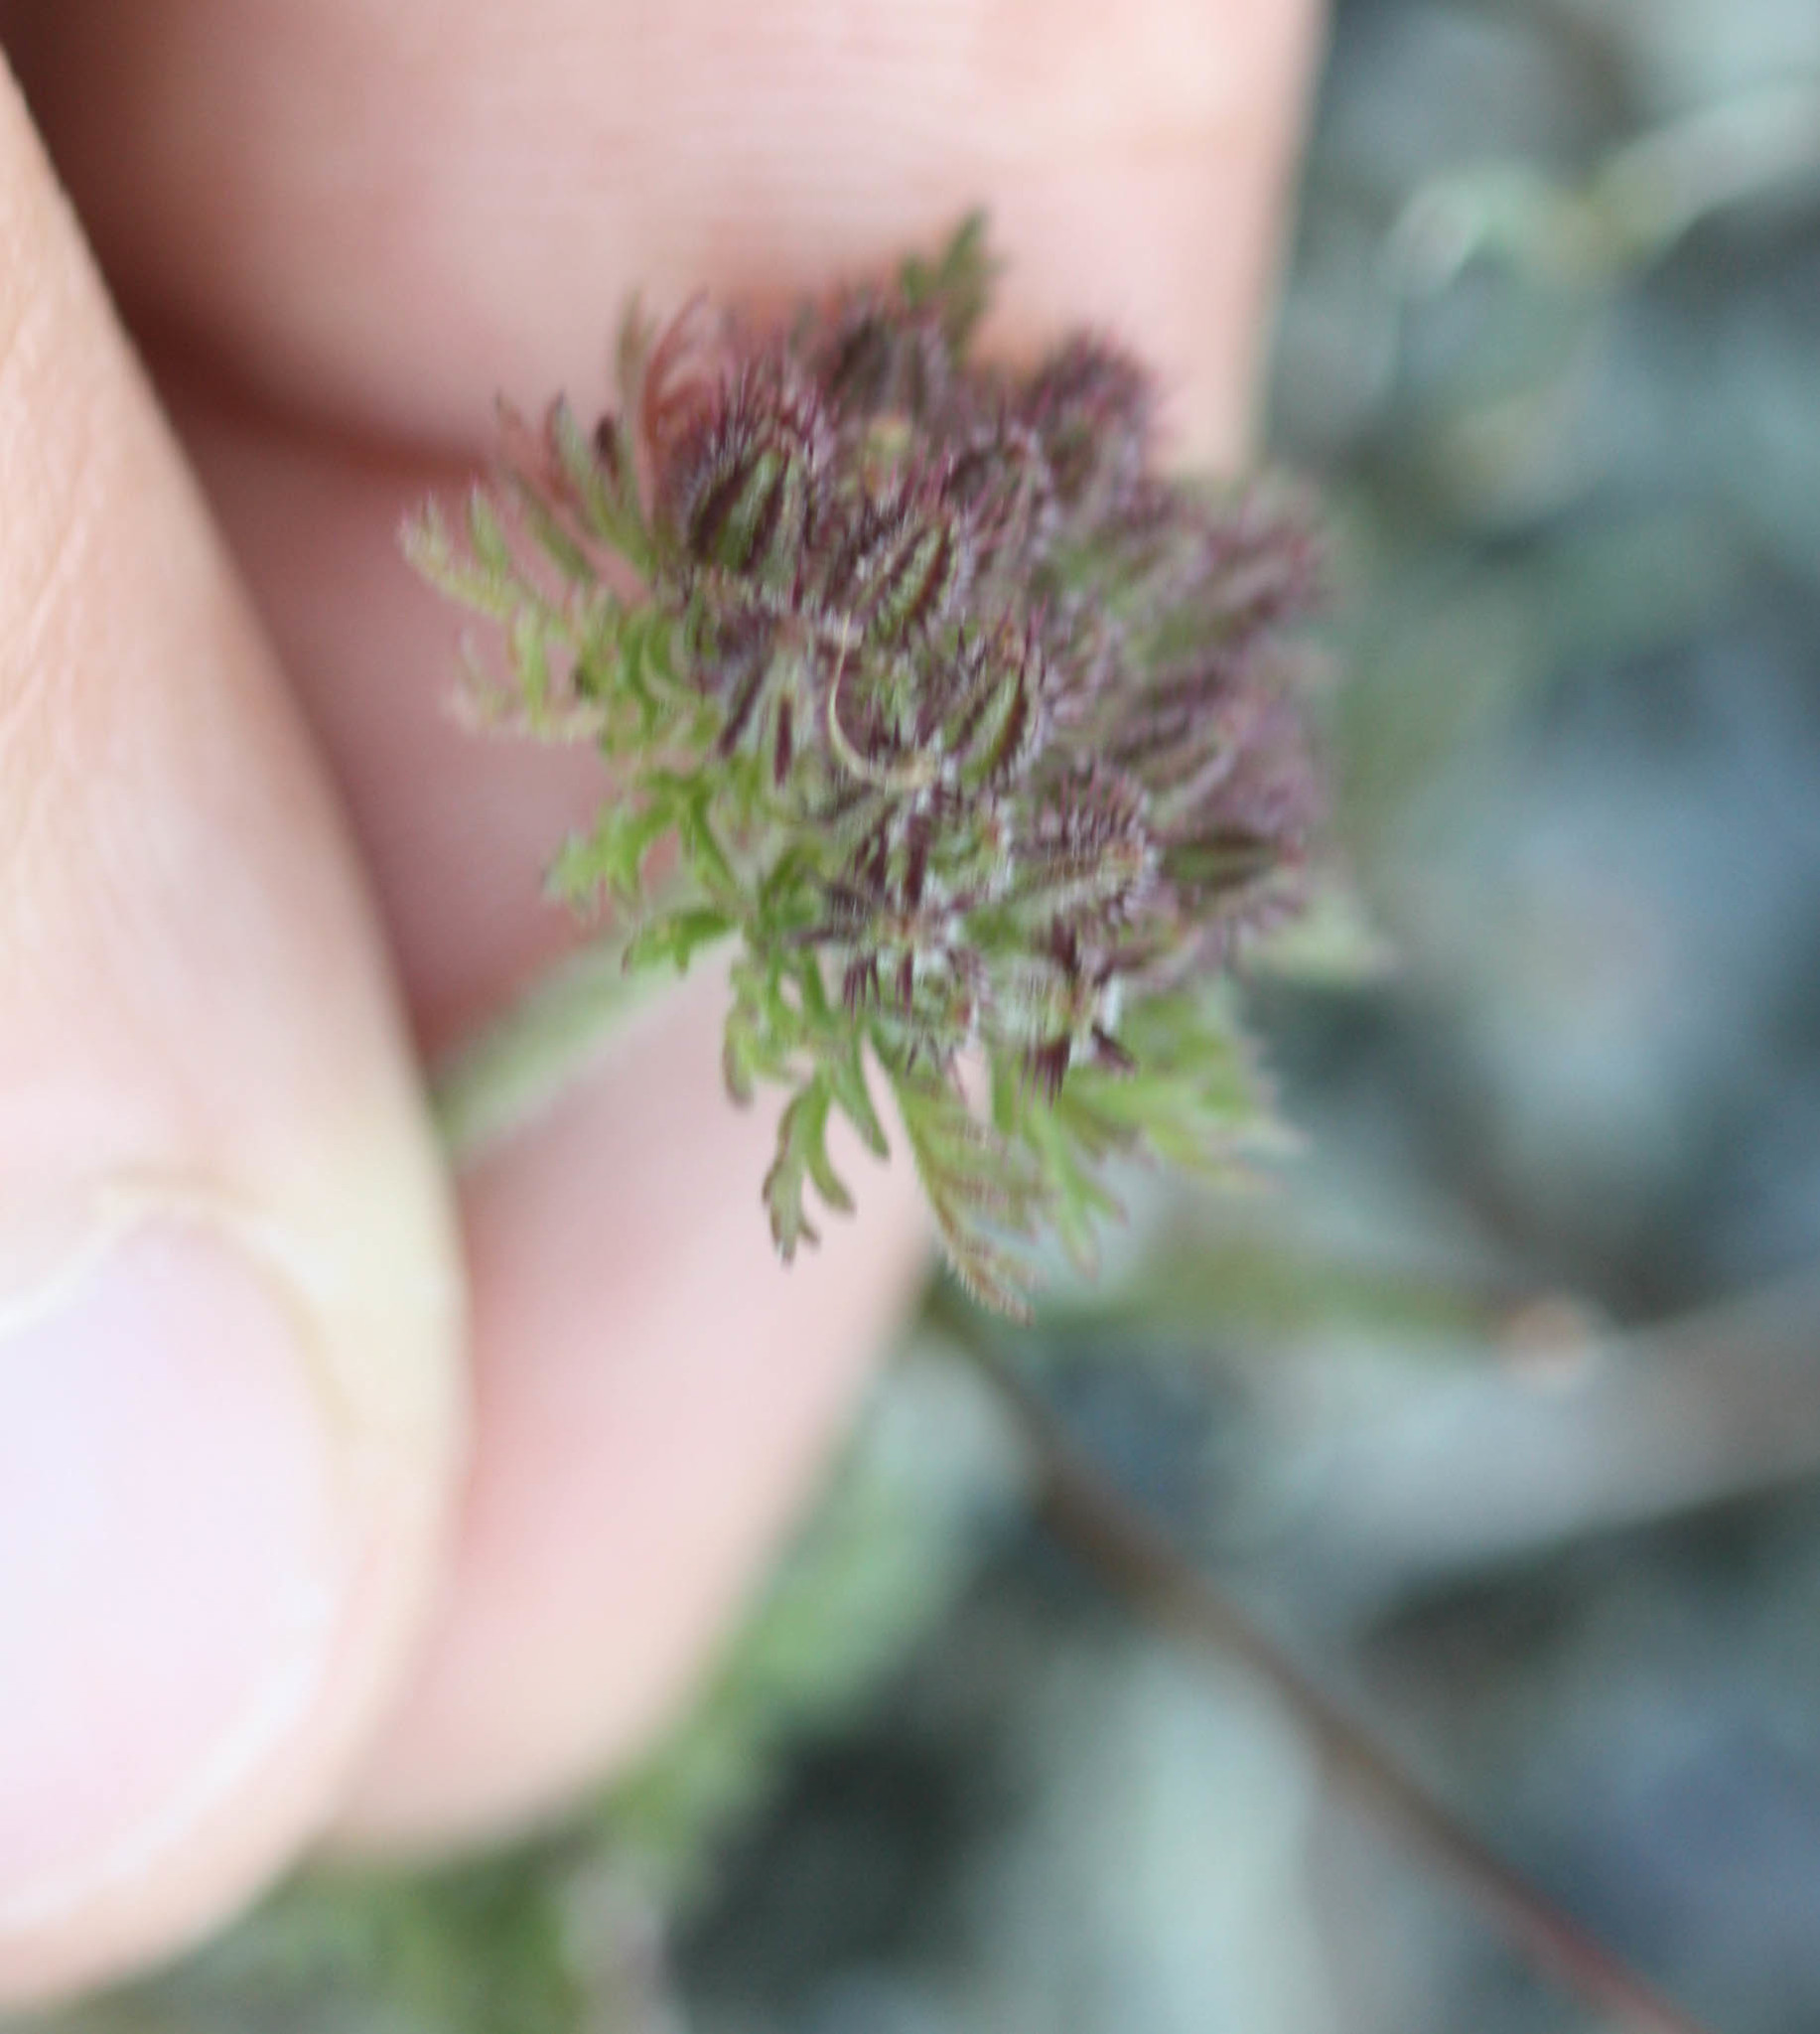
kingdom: Plantae
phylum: Tracheophyta
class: Magnoliopsida
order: Apiales
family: Apiaceae
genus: Daucus
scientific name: Daucus pusillus
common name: Southwest wild carrot
